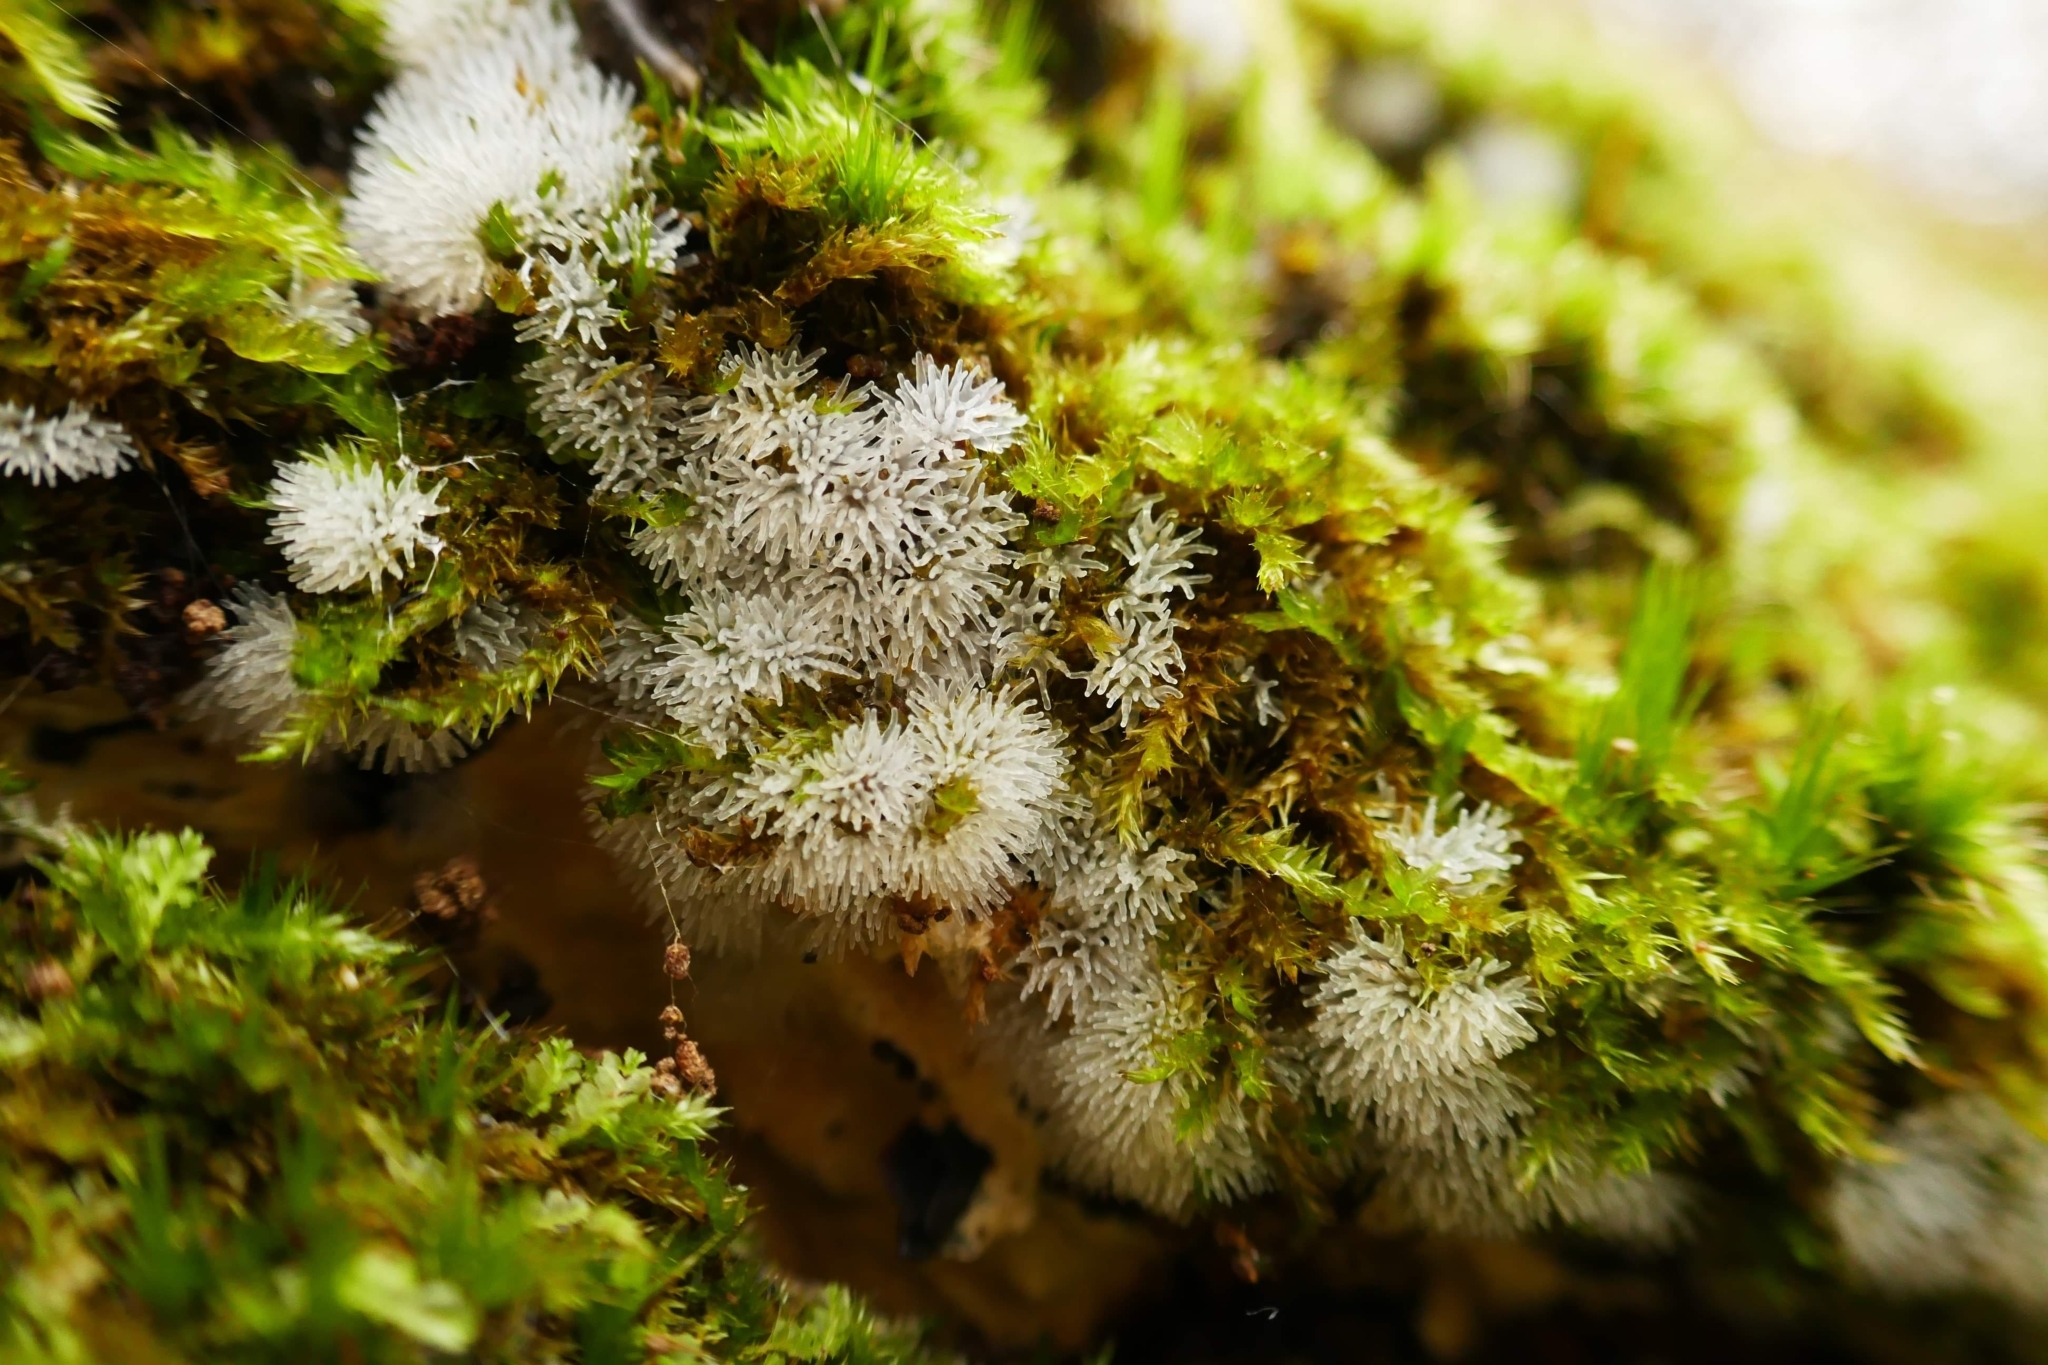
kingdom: Protozoa
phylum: Mycetozoa
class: Protosteliomycetes
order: Ceratiomyxales
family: Ceratiomyxaceae
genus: Ceratiomyxa
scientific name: Ceratiomyxa fruticulosa
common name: Honeycomb coral slime mold
